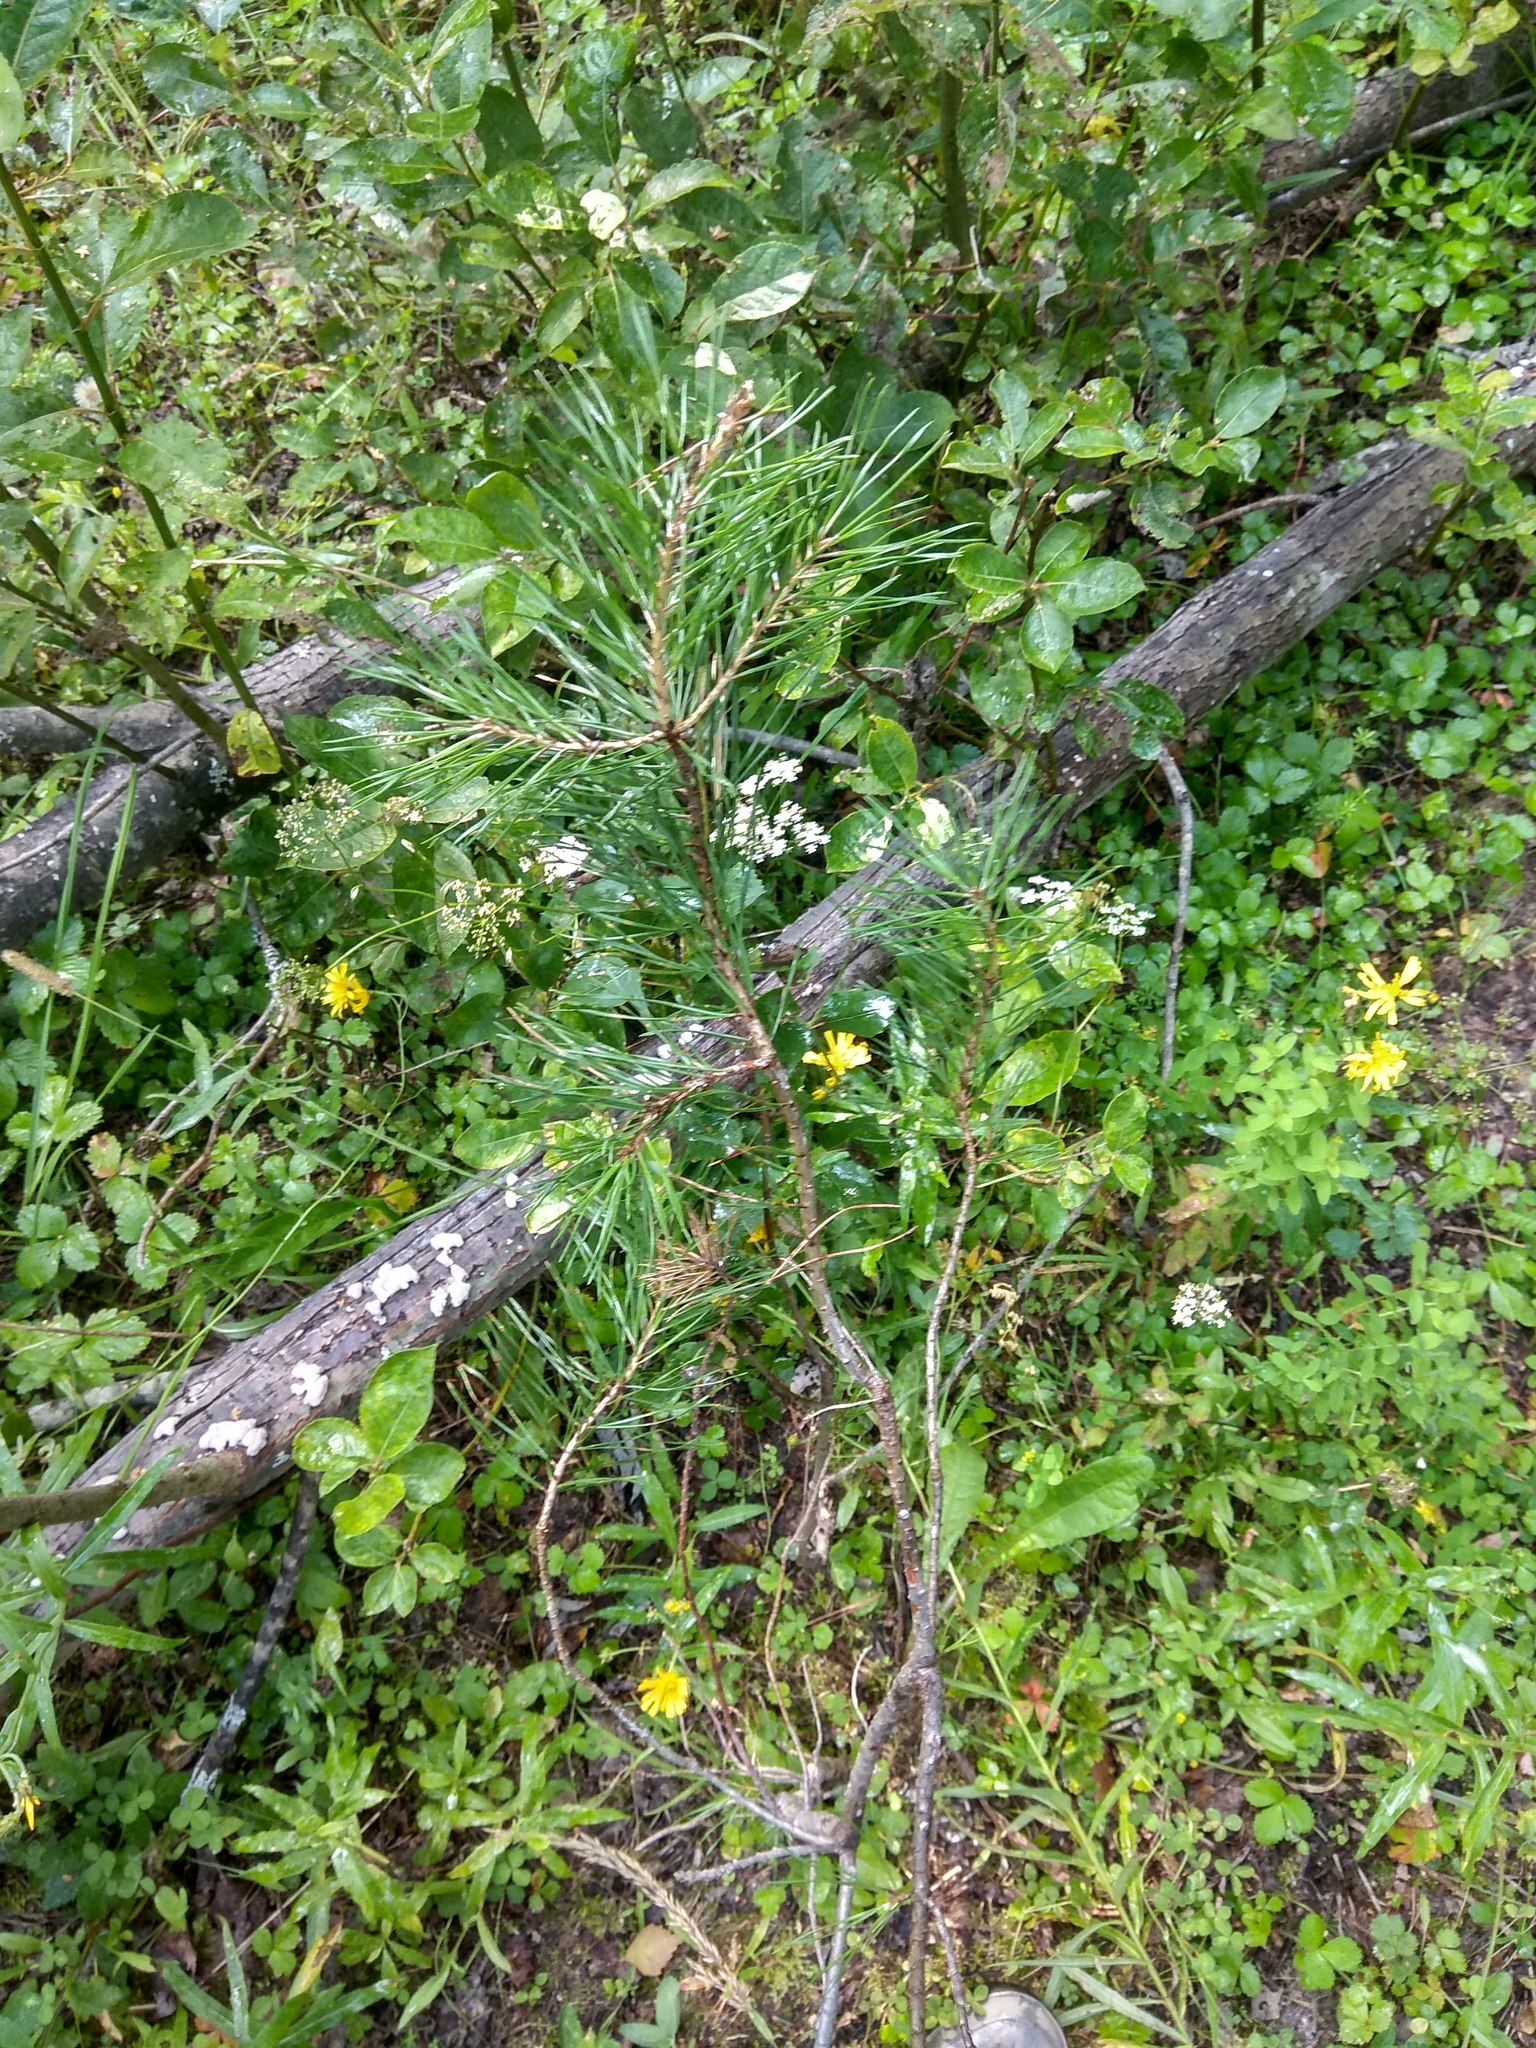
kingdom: Plantae
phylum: Tracheophyta
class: Pinopsida
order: Pinales
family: Pinaceae
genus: Pinus
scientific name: Pinus sylvestris
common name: Scots pine
